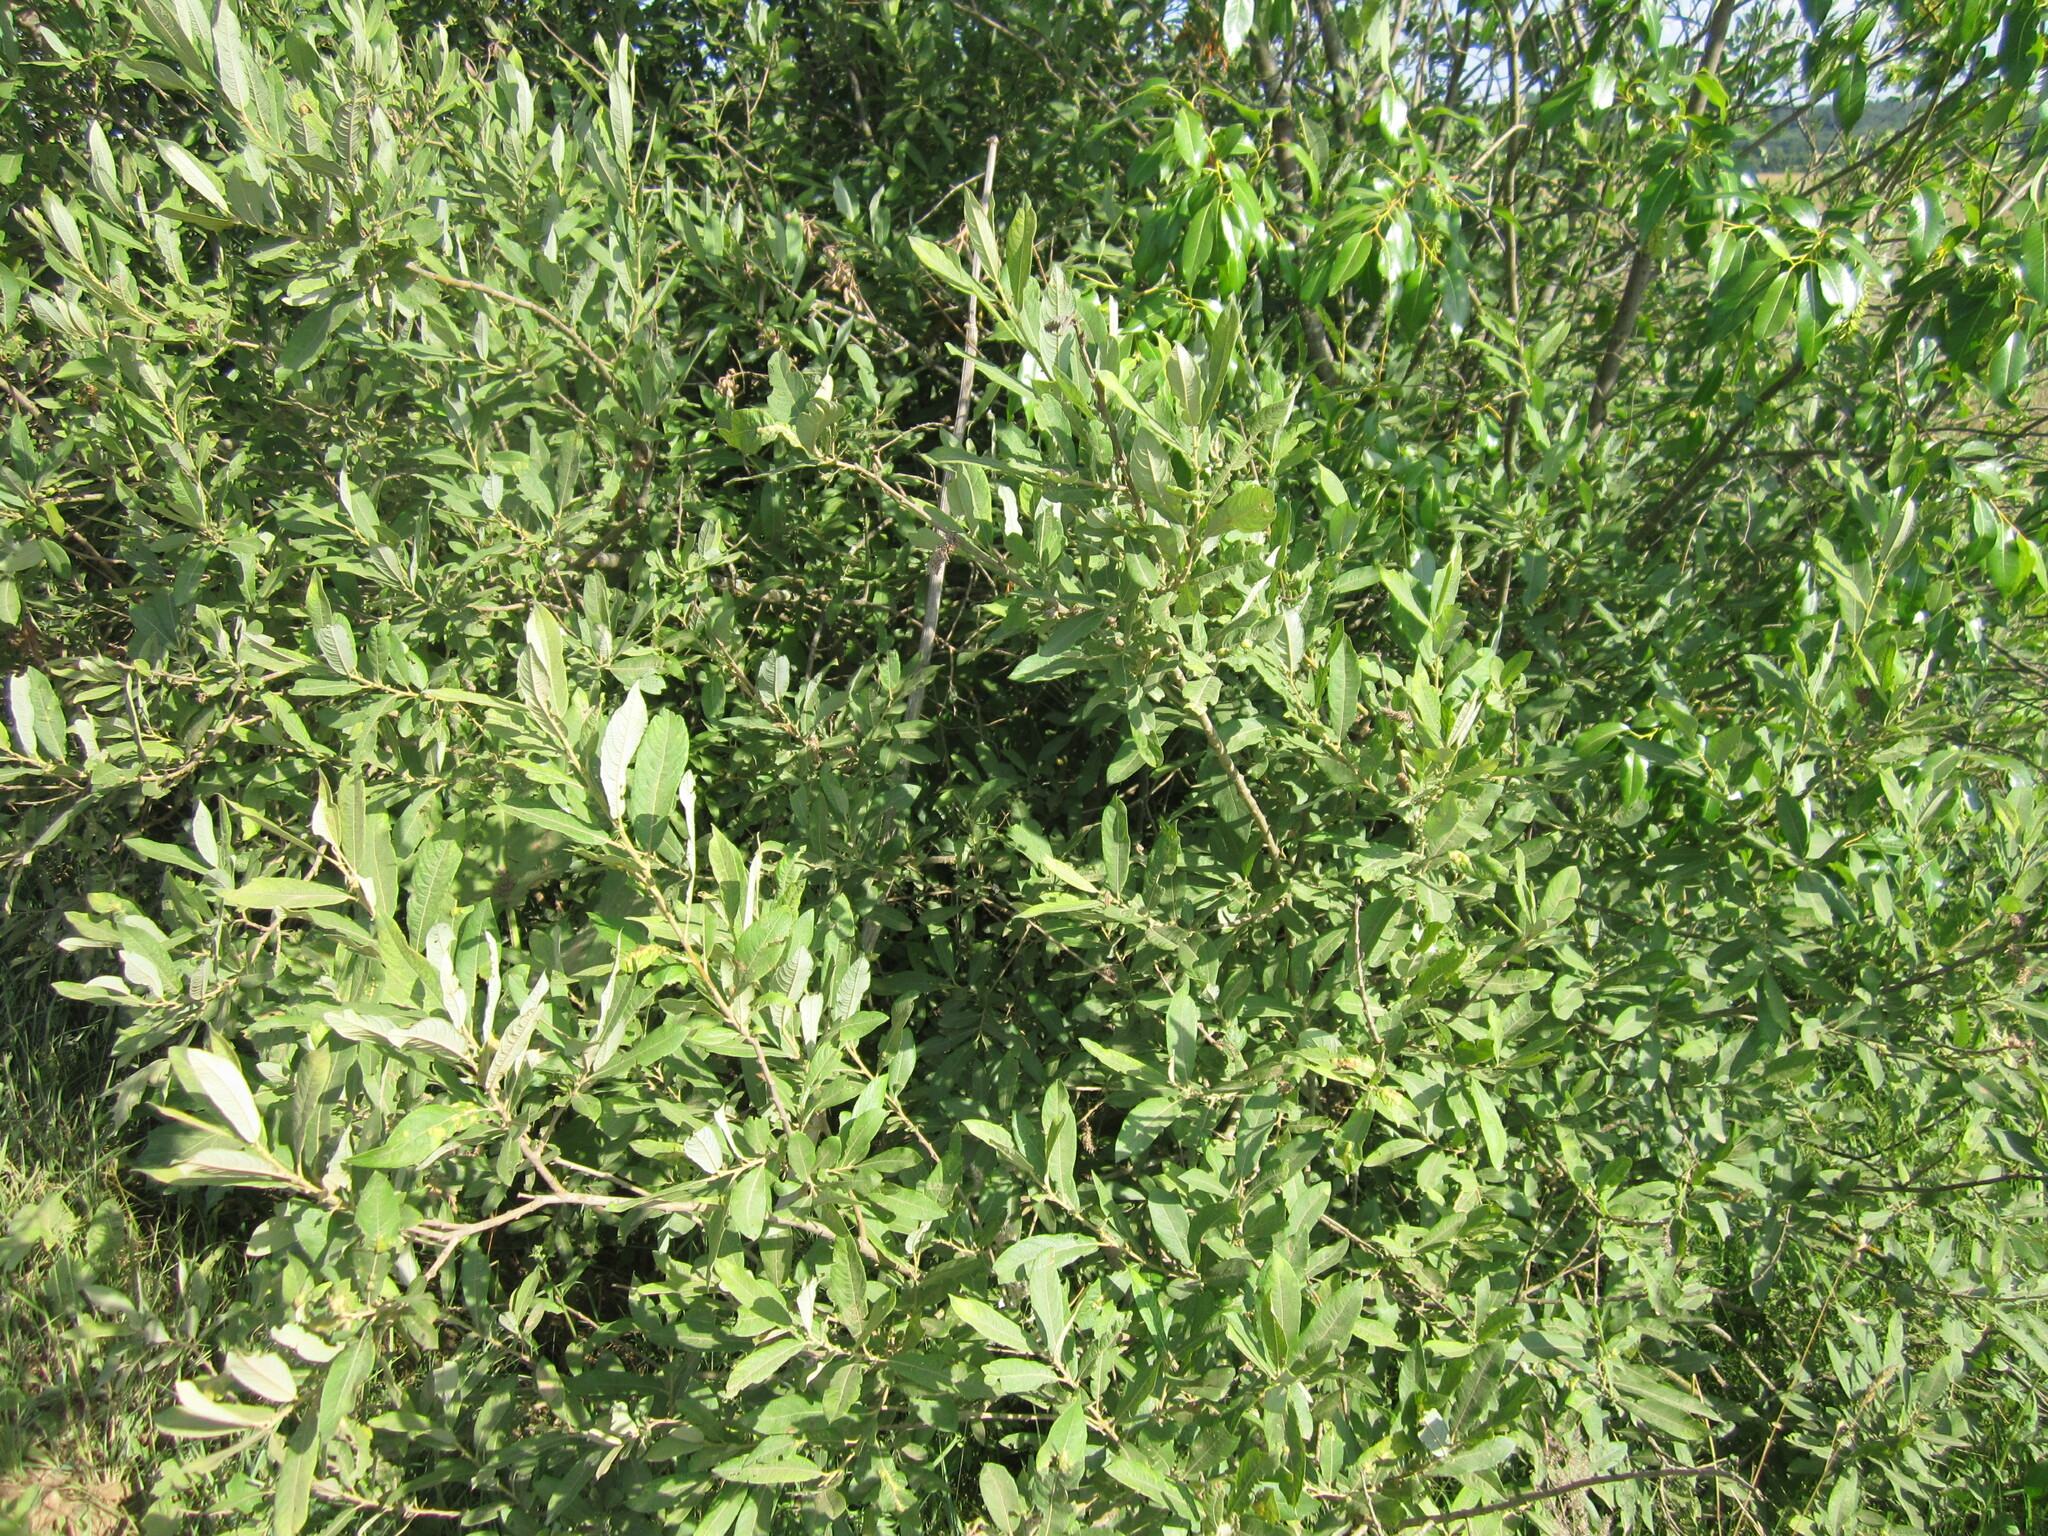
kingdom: Plantae
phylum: Tracheophyta
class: Magnoliopsida
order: Malpighiales
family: Salicaceae
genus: Salix
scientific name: Salix cinerea
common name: Common sallow
